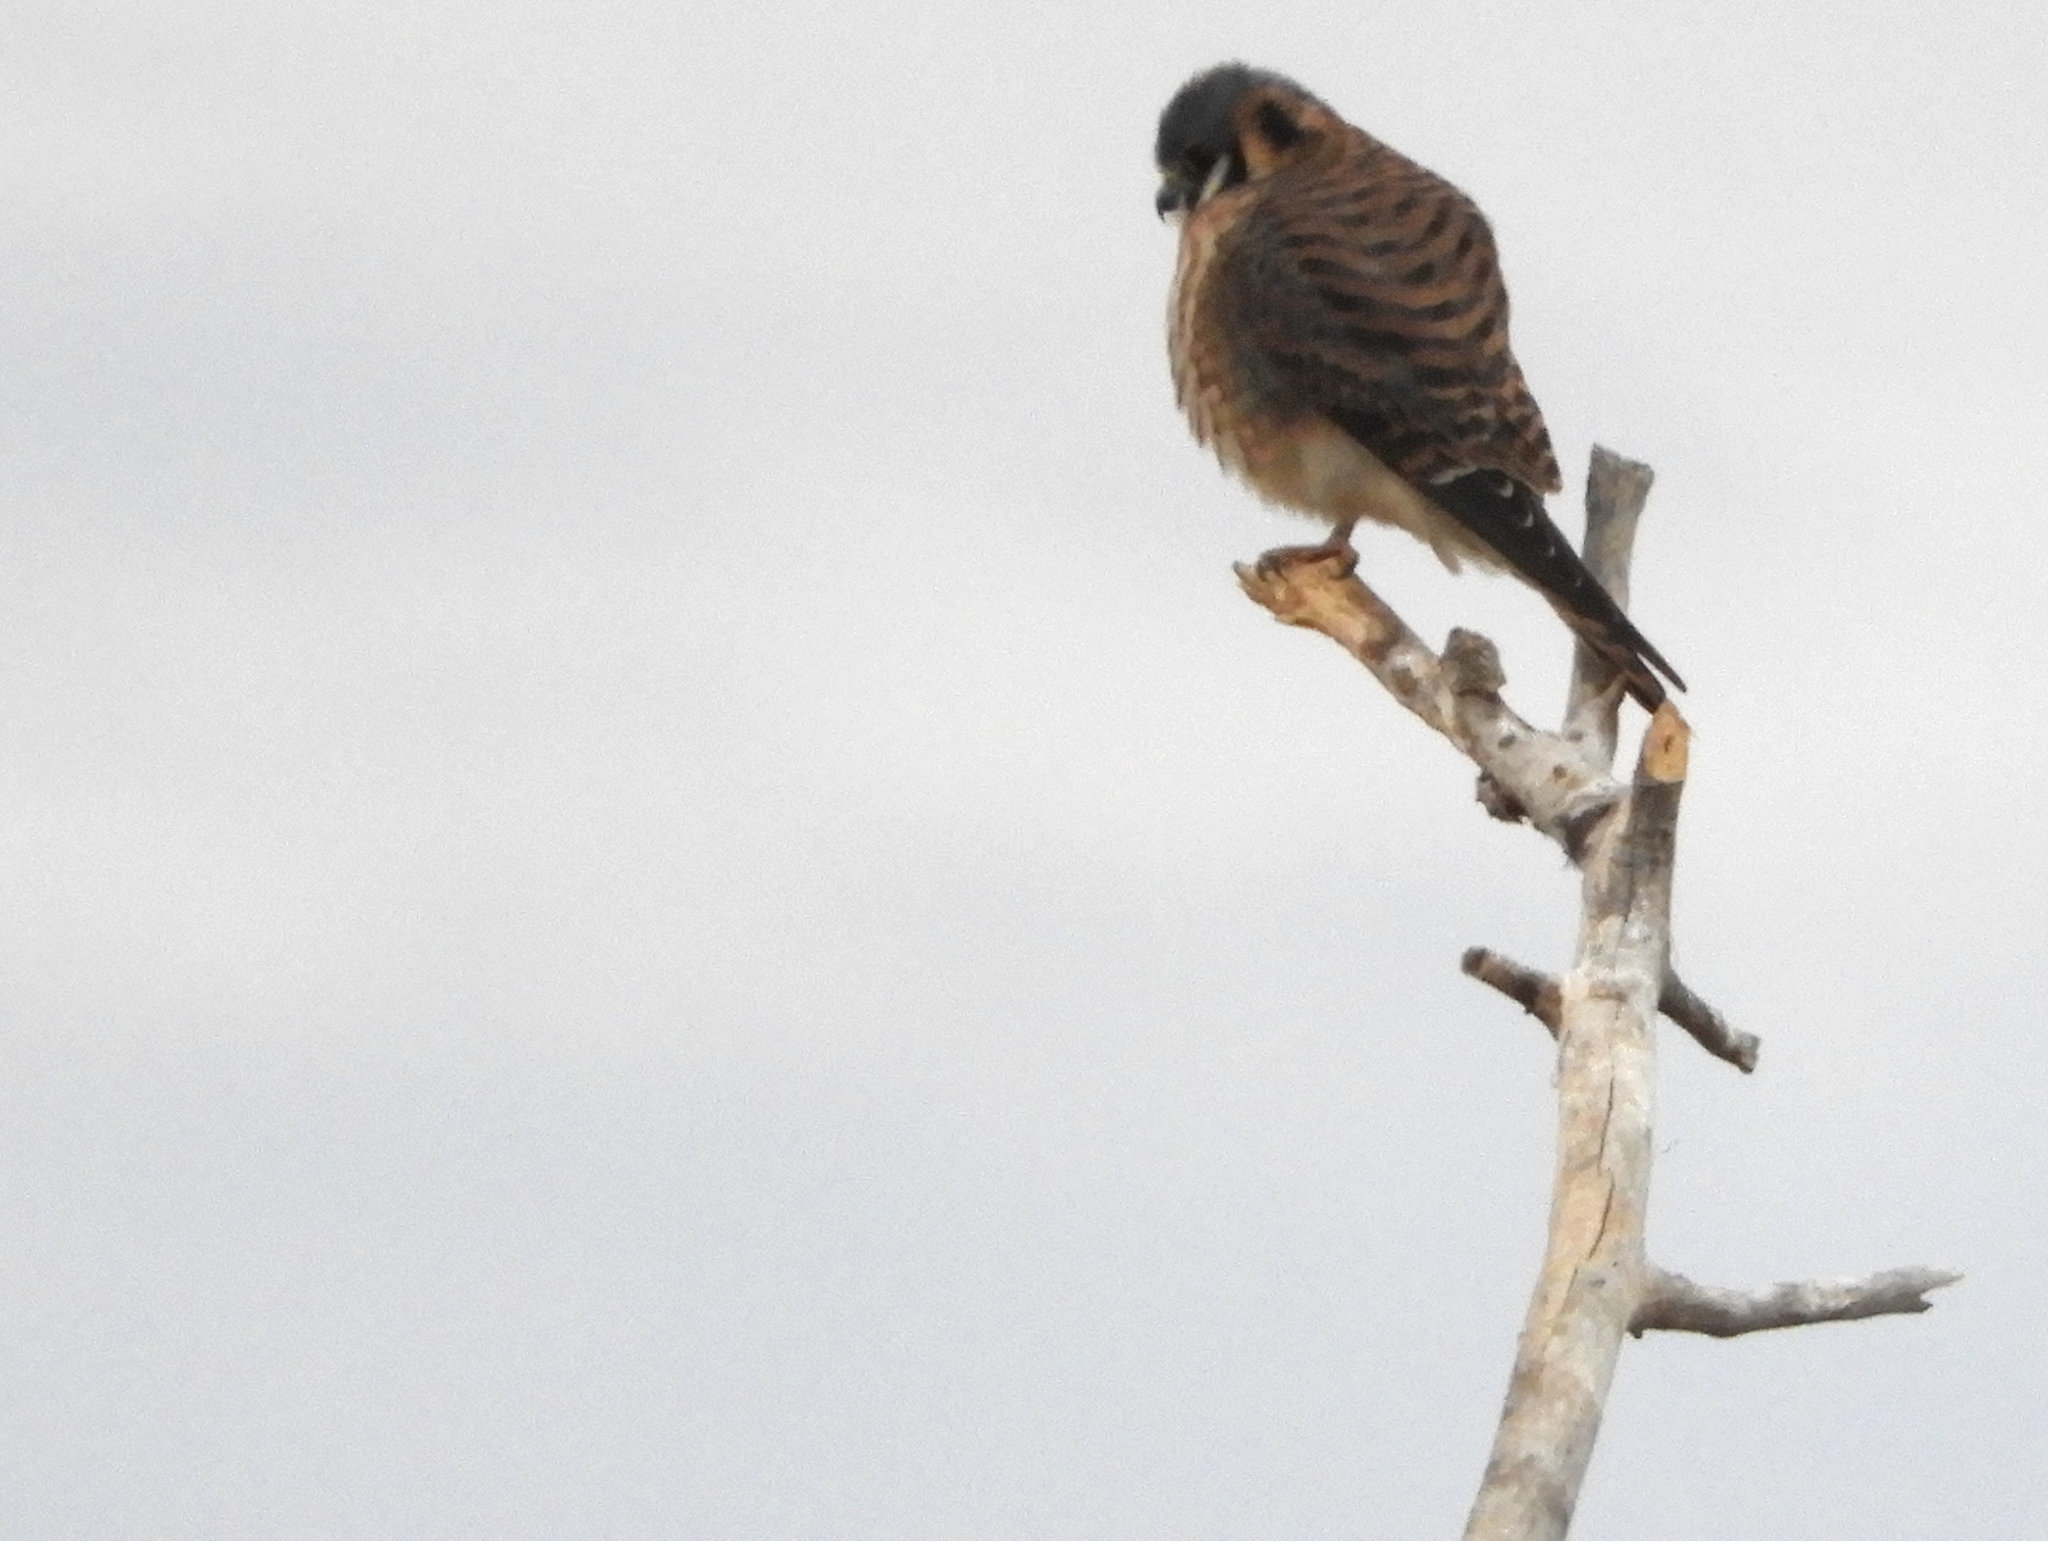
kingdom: Animalia
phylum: Chordata
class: Aves
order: Falconiformes
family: Falconidae
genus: Falco
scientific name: Falco sparverius
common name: American kestrel
